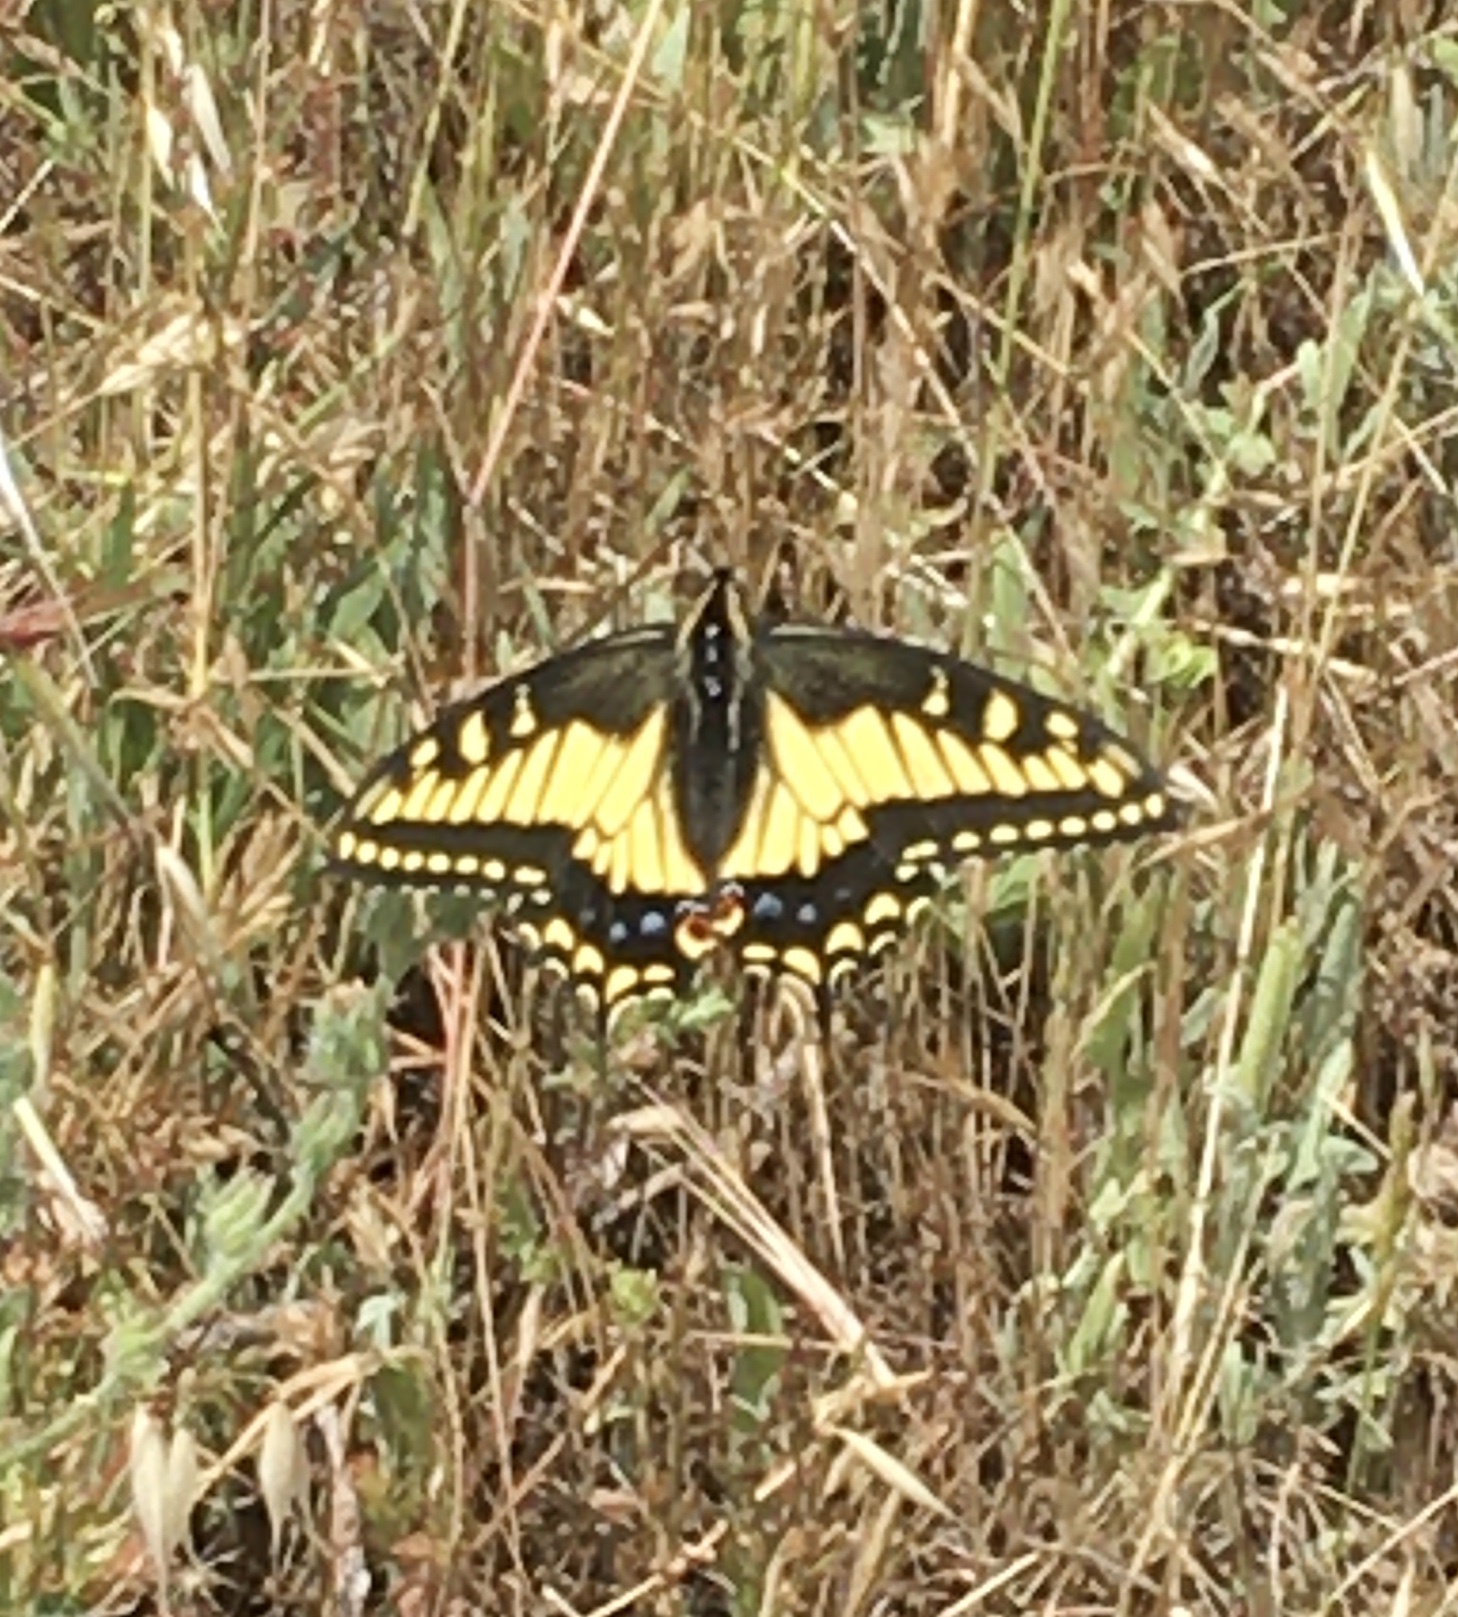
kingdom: Animalia
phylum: Arthropoda
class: Insecta
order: Lepidoptera
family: Papilionidae
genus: Papilio
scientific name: Papilio zelicaon
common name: Anise swallowtail
